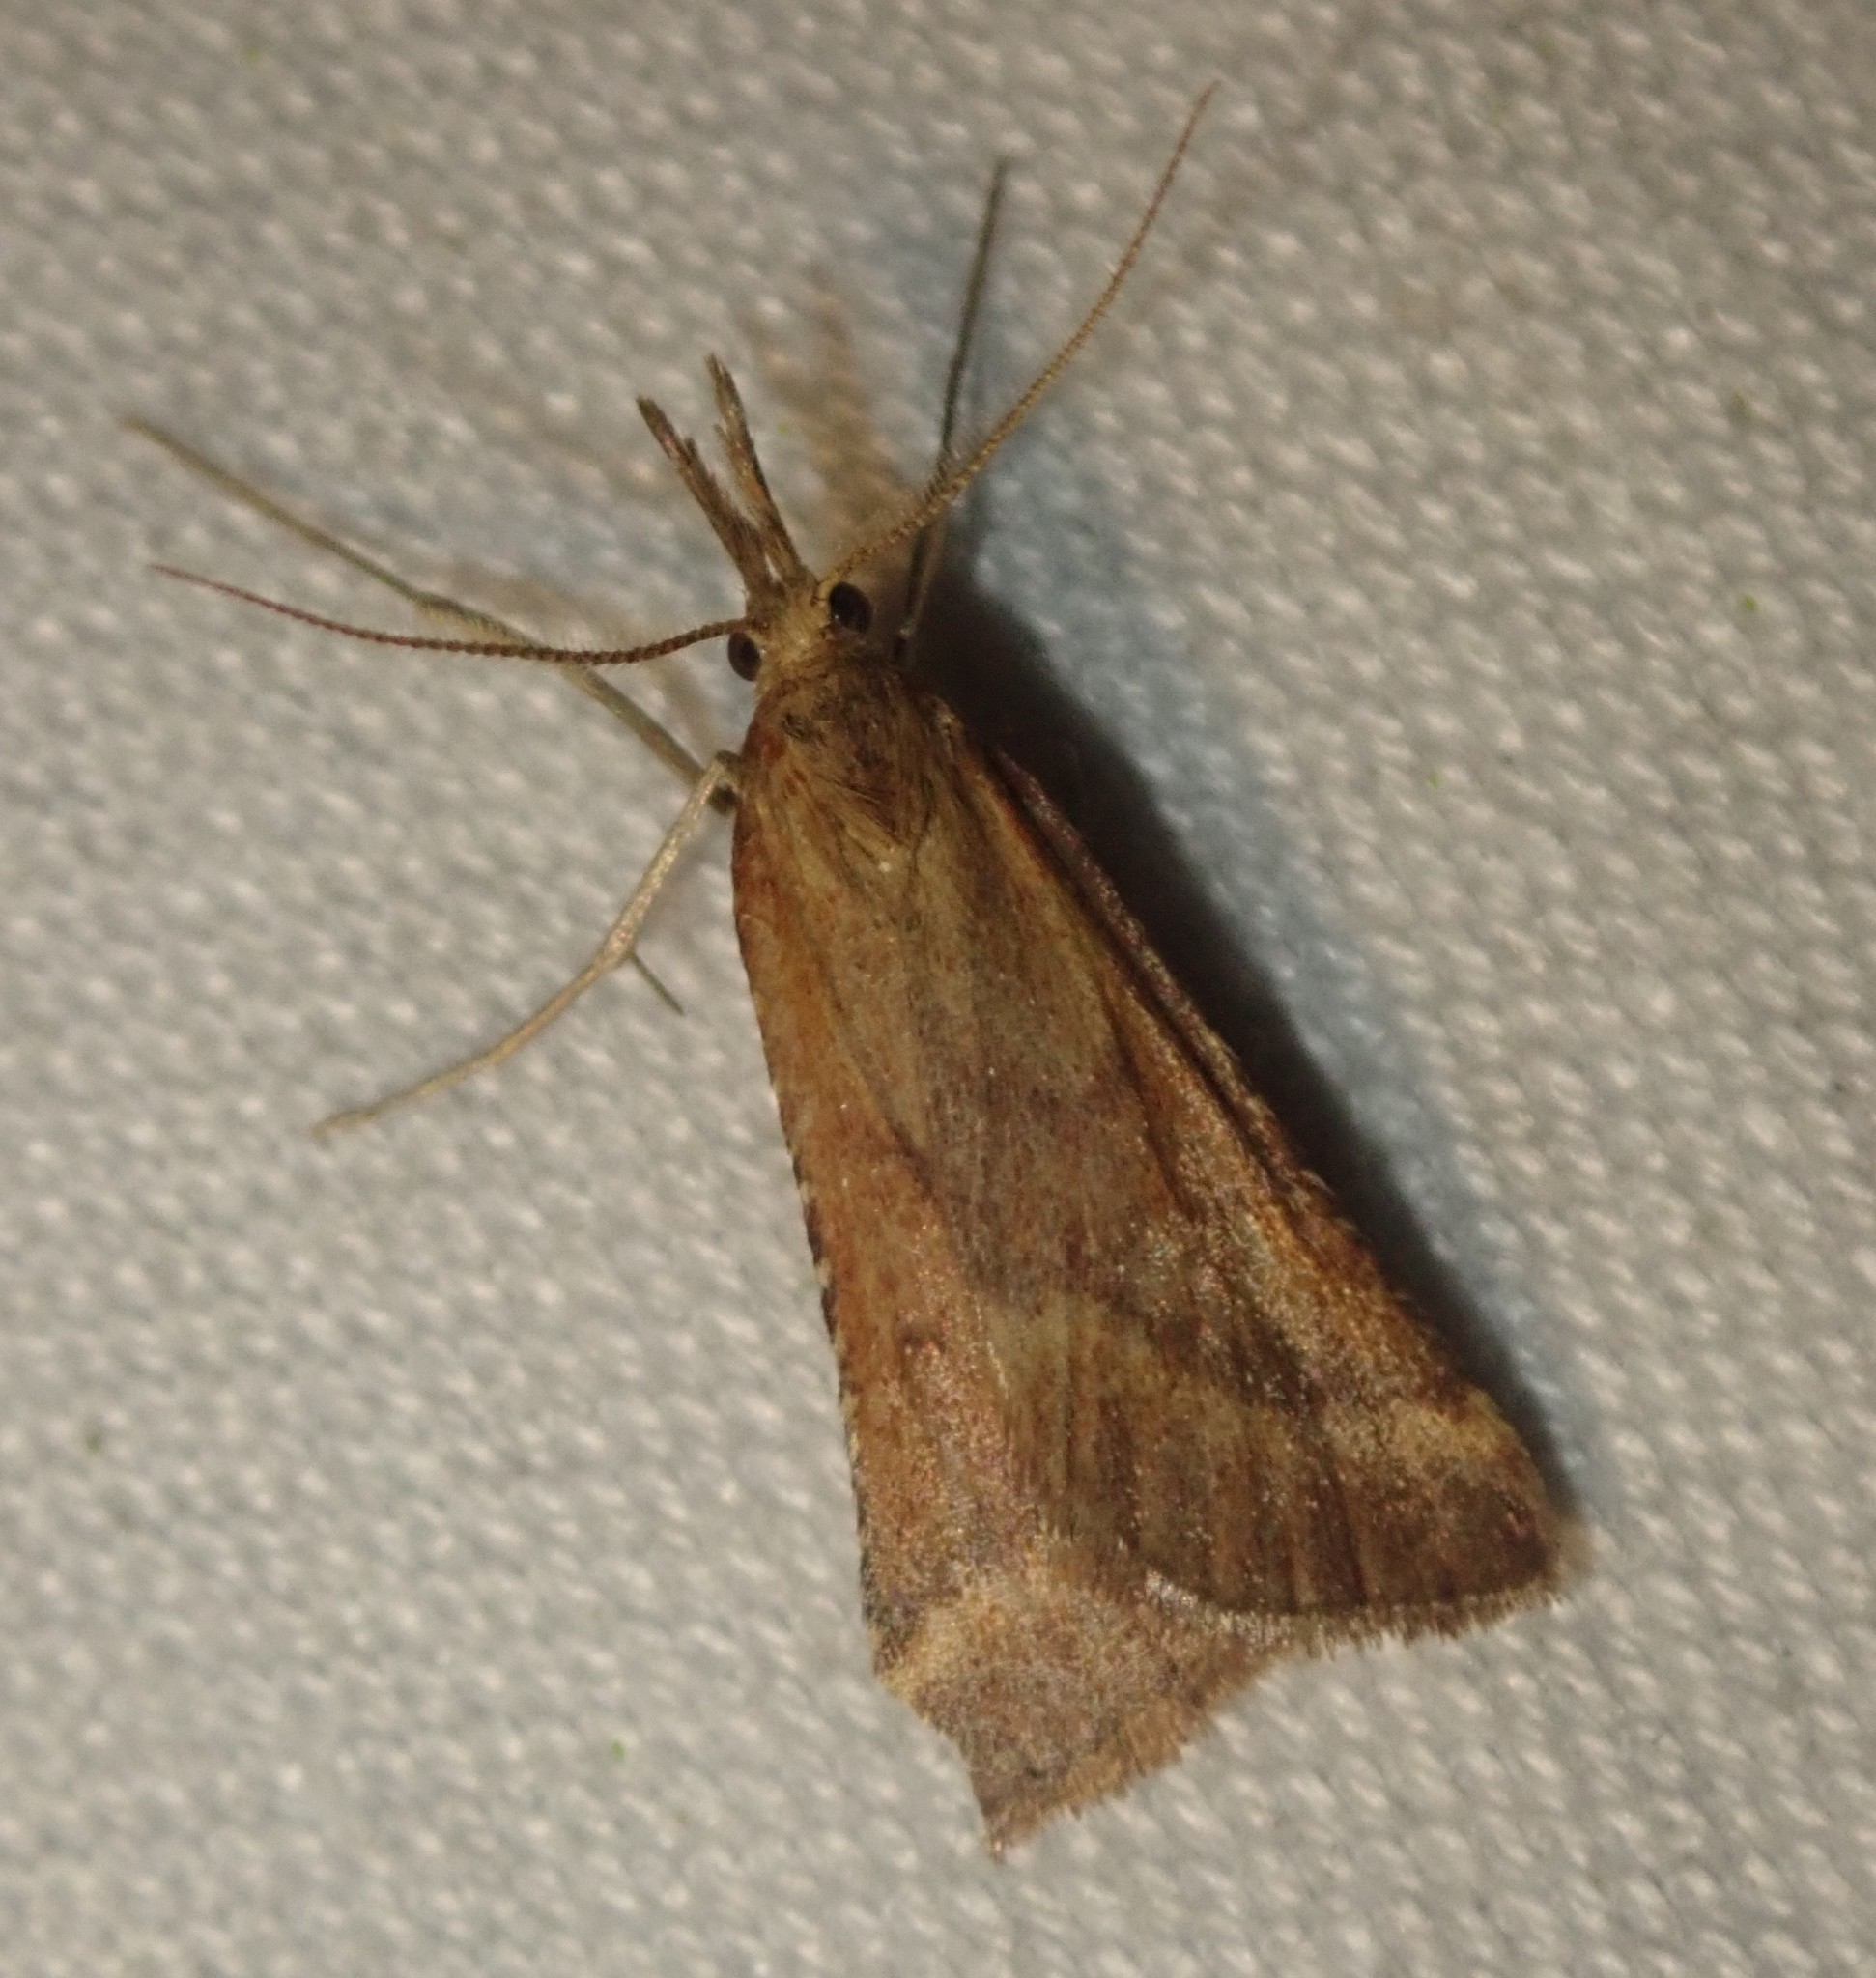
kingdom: Animalia
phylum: Arthropoda
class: Insecta
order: Lepidoptera
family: Pyralidae
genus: Synaphe
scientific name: Synaphe punctalis
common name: Long-legged tabby
